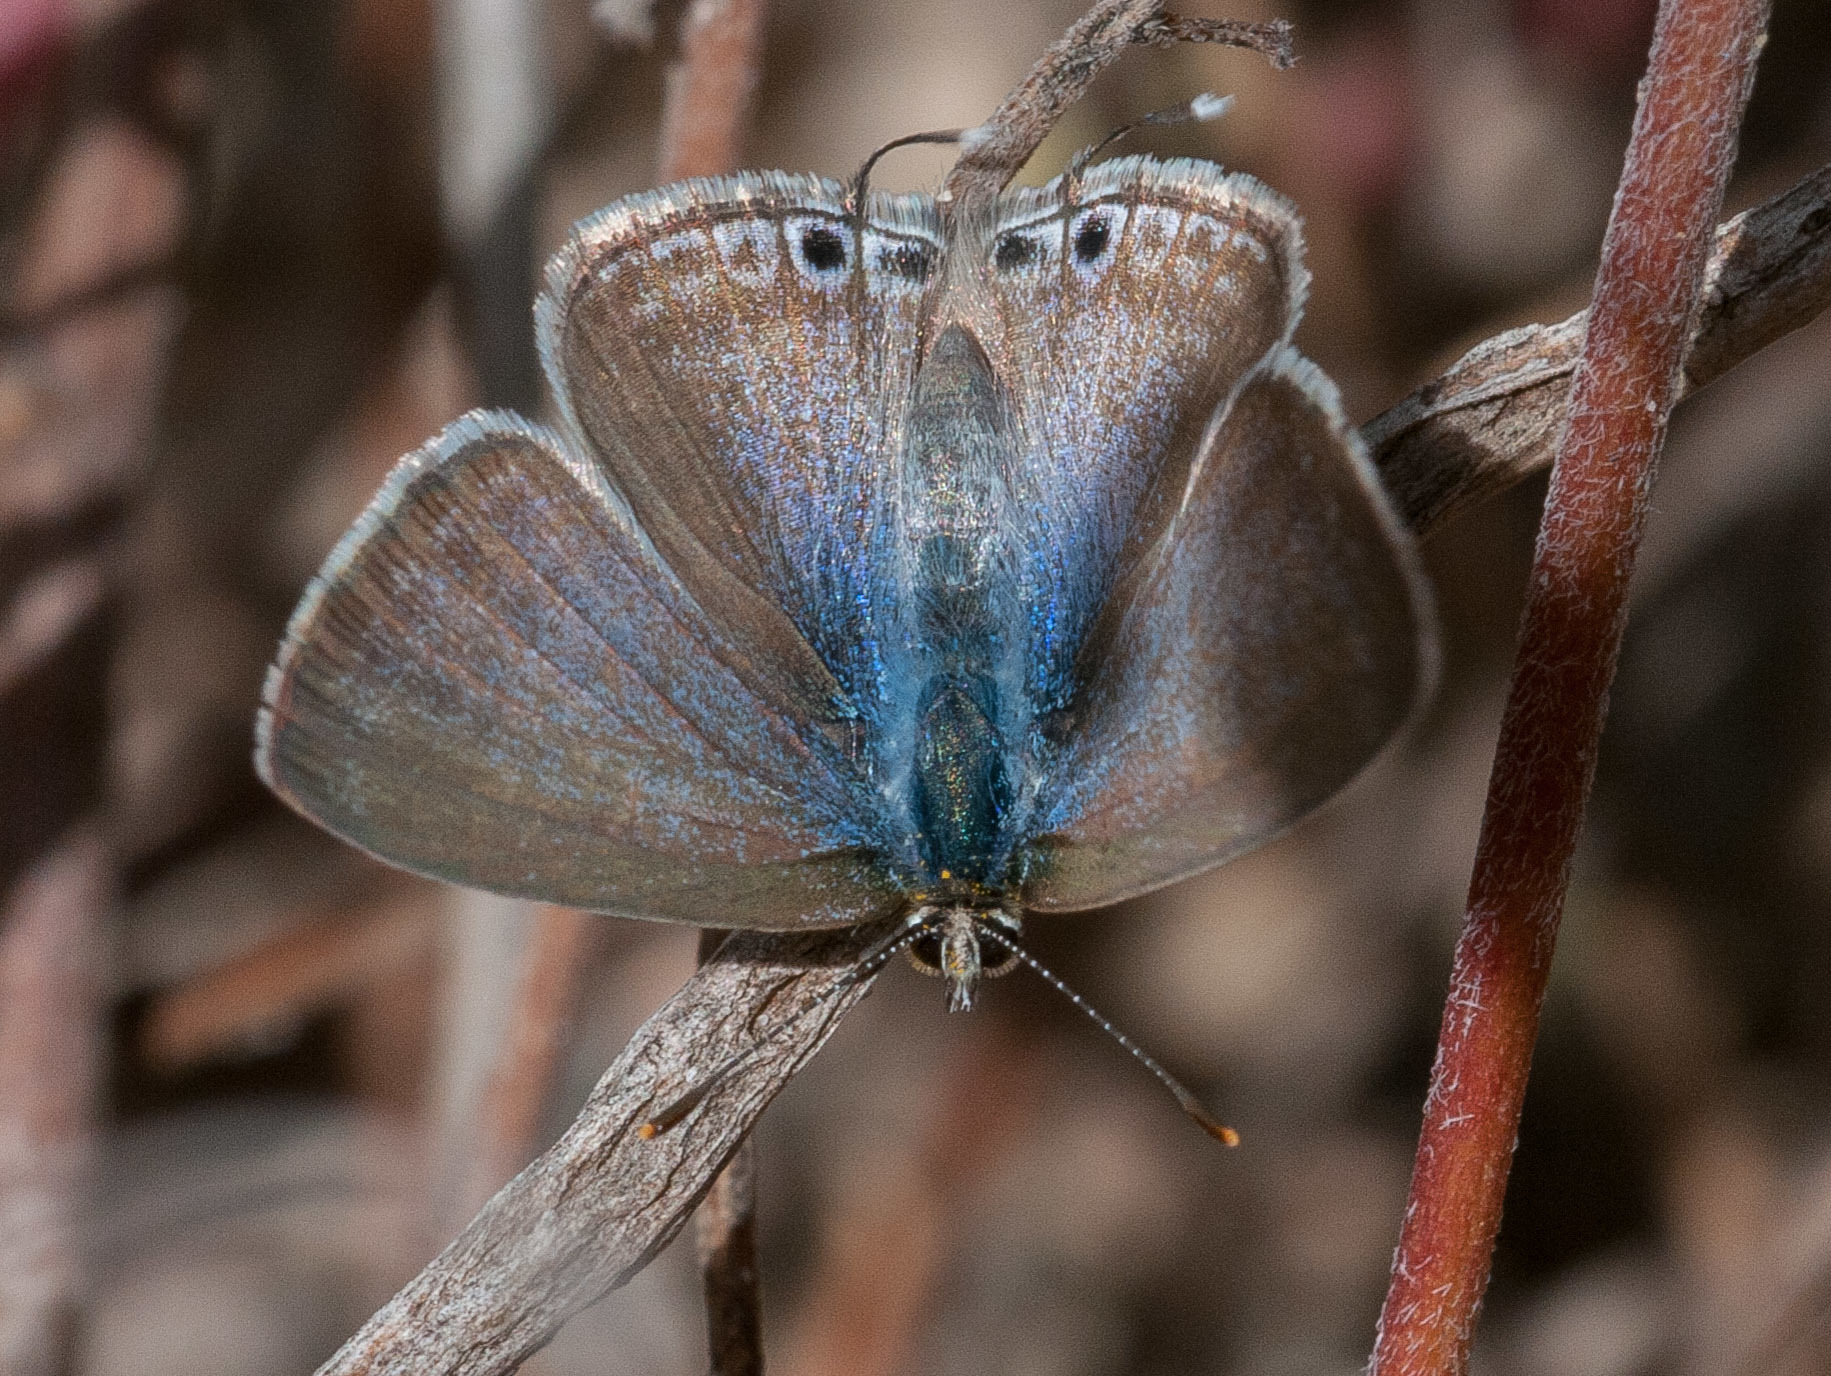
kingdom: Animalia
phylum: Arthropoda
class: Insecta
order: Lepidoptera
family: Lycaenidae
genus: Lampides
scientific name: Lampides boeticus
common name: Long-tailed blue
